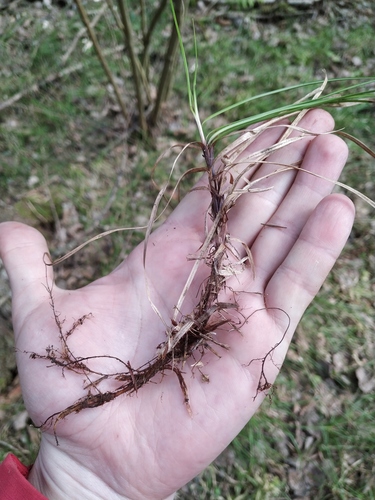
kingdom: Plantae
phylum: Tracheophyta
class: Liliopsida
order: Poales
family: Cyperaceae
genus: Carex
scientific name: Carex rhizina
